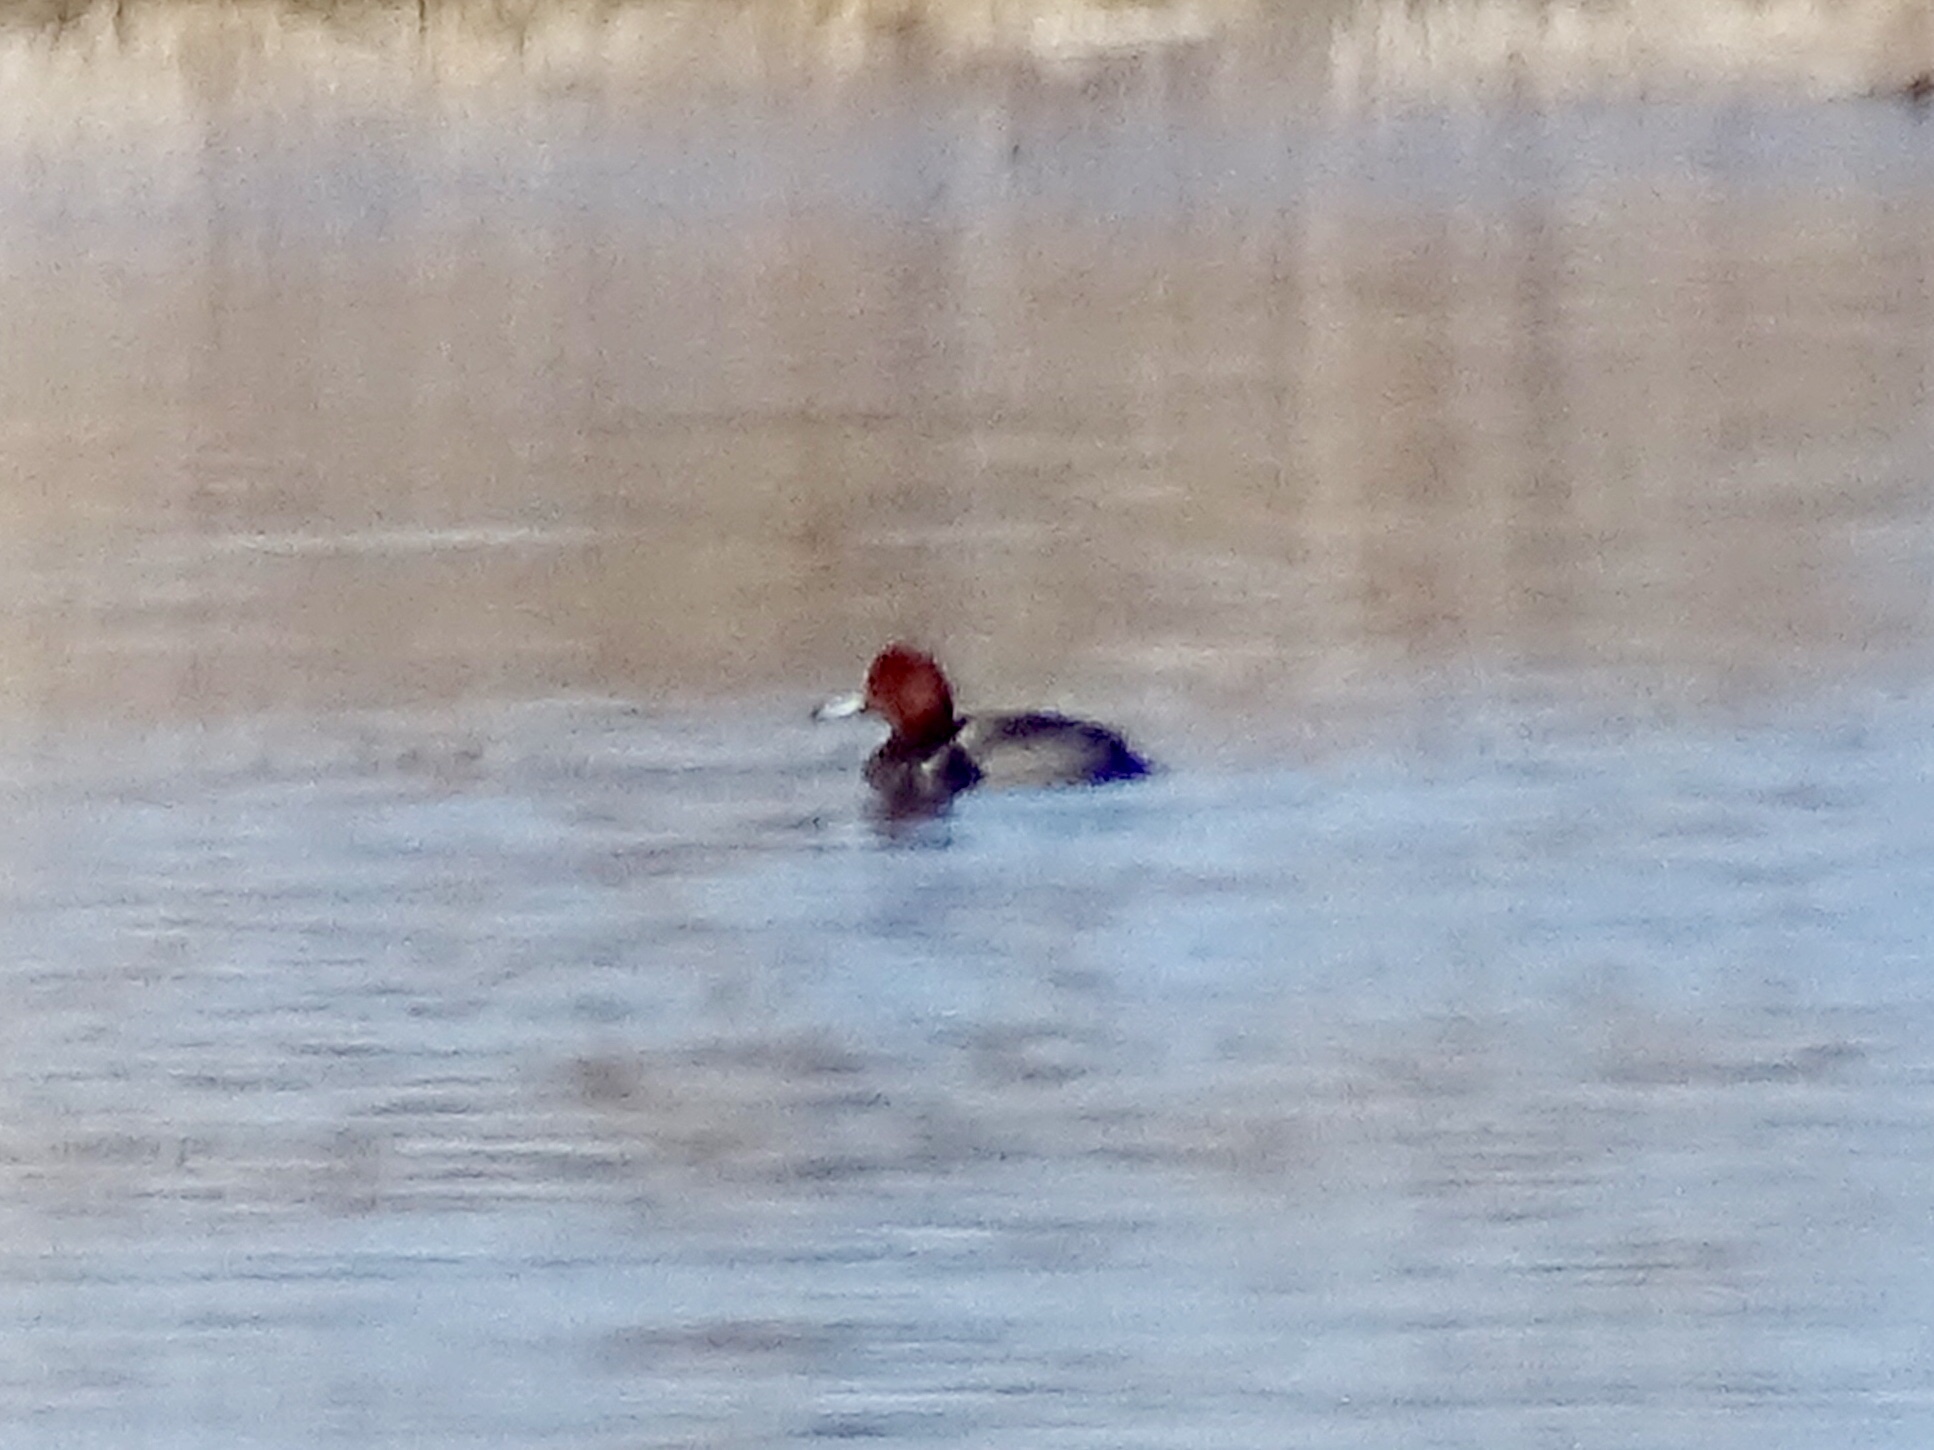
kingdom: Animalia
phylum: Chordata
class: Aves
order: Anseriformes
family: Anatidae
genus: Aythya
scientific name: Aythya americana
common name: Redhead
